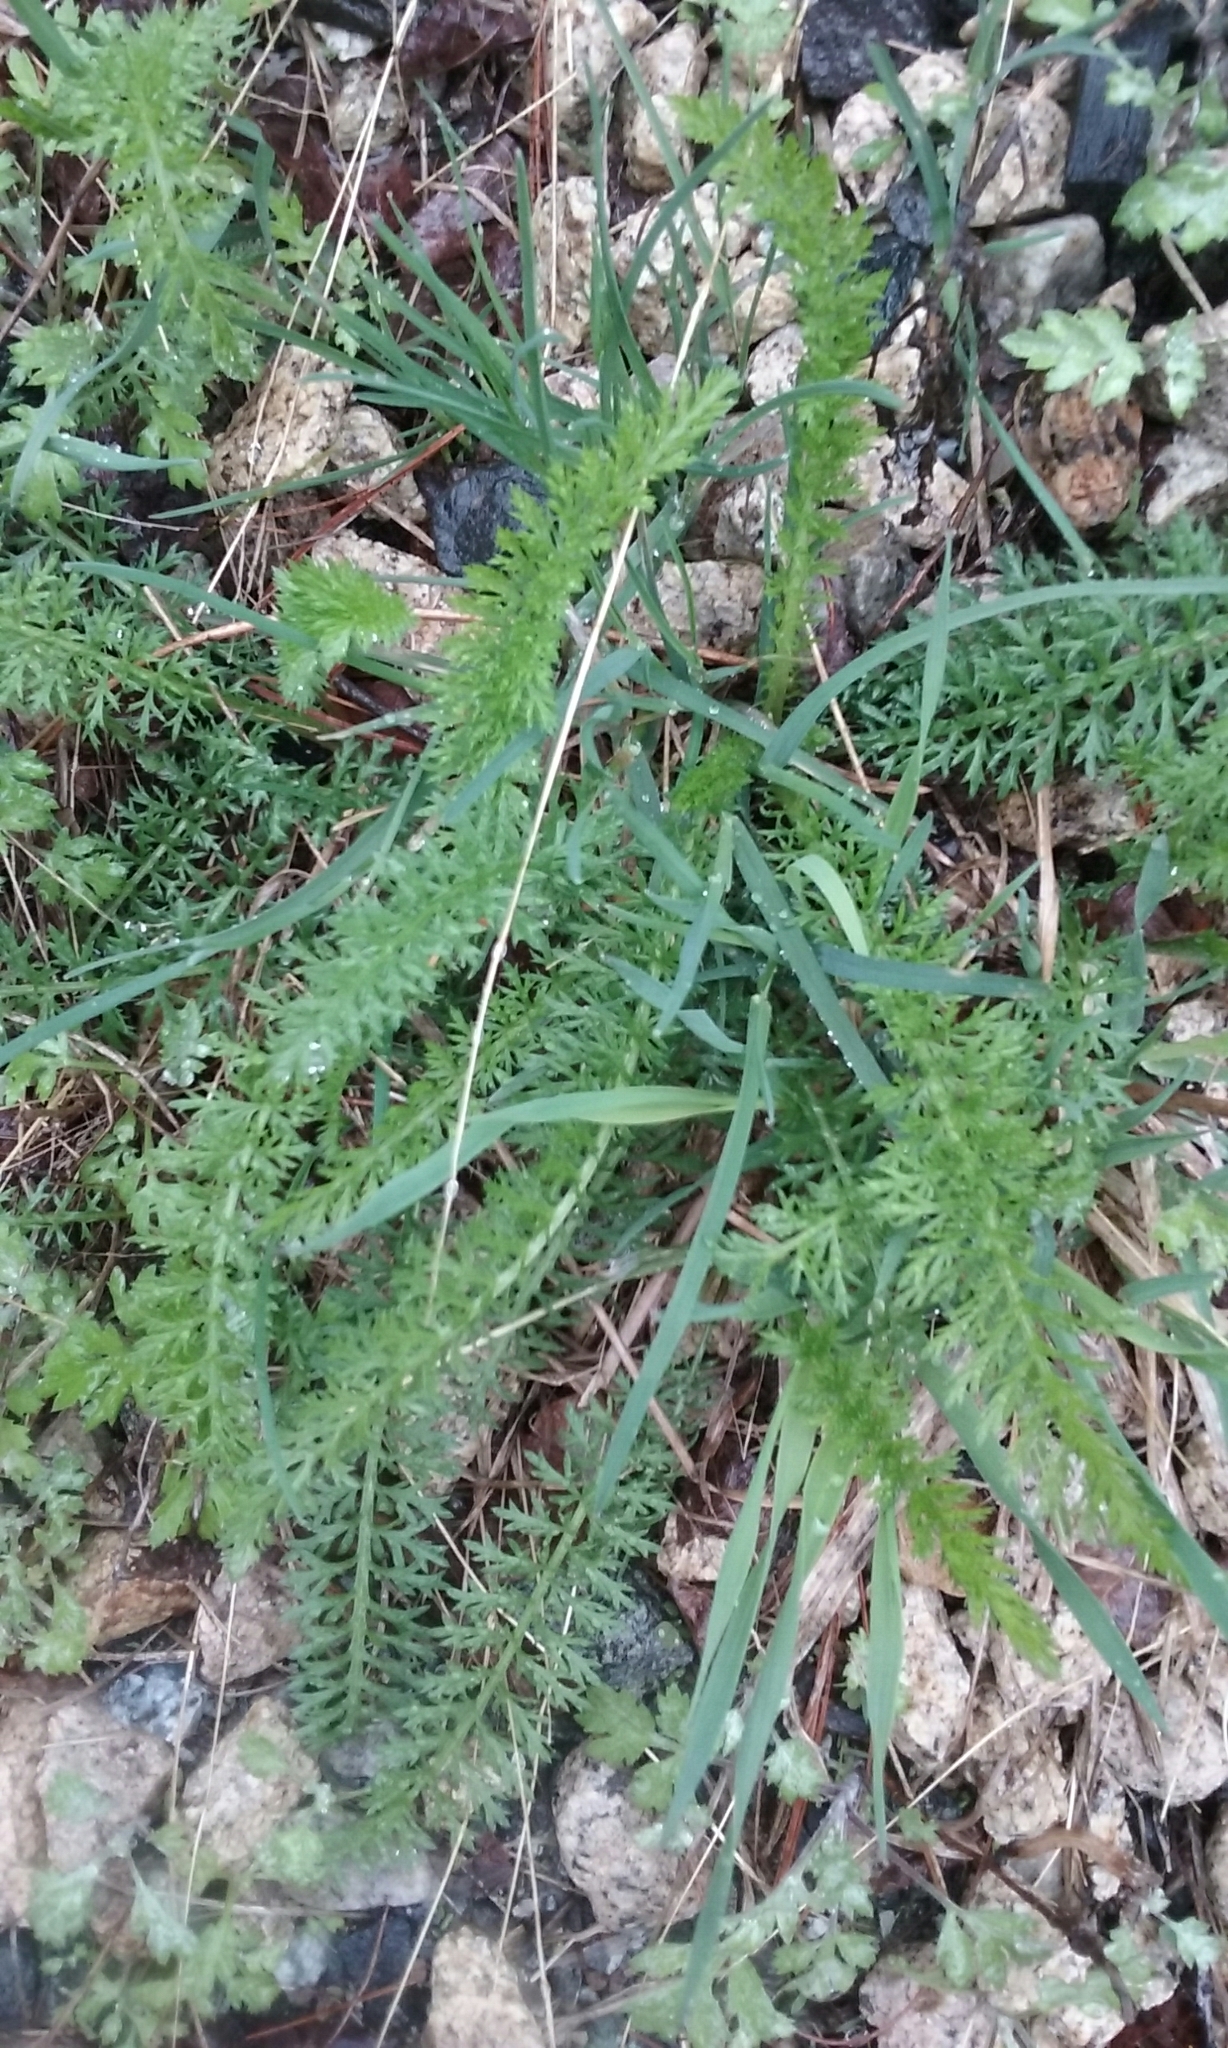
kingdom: Plantae
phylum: Tracheophyta
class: Magnoliopsida
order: Asterales
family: Asteraceae
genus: Achillea
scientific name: Achillea millefolium
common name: Yarrow
